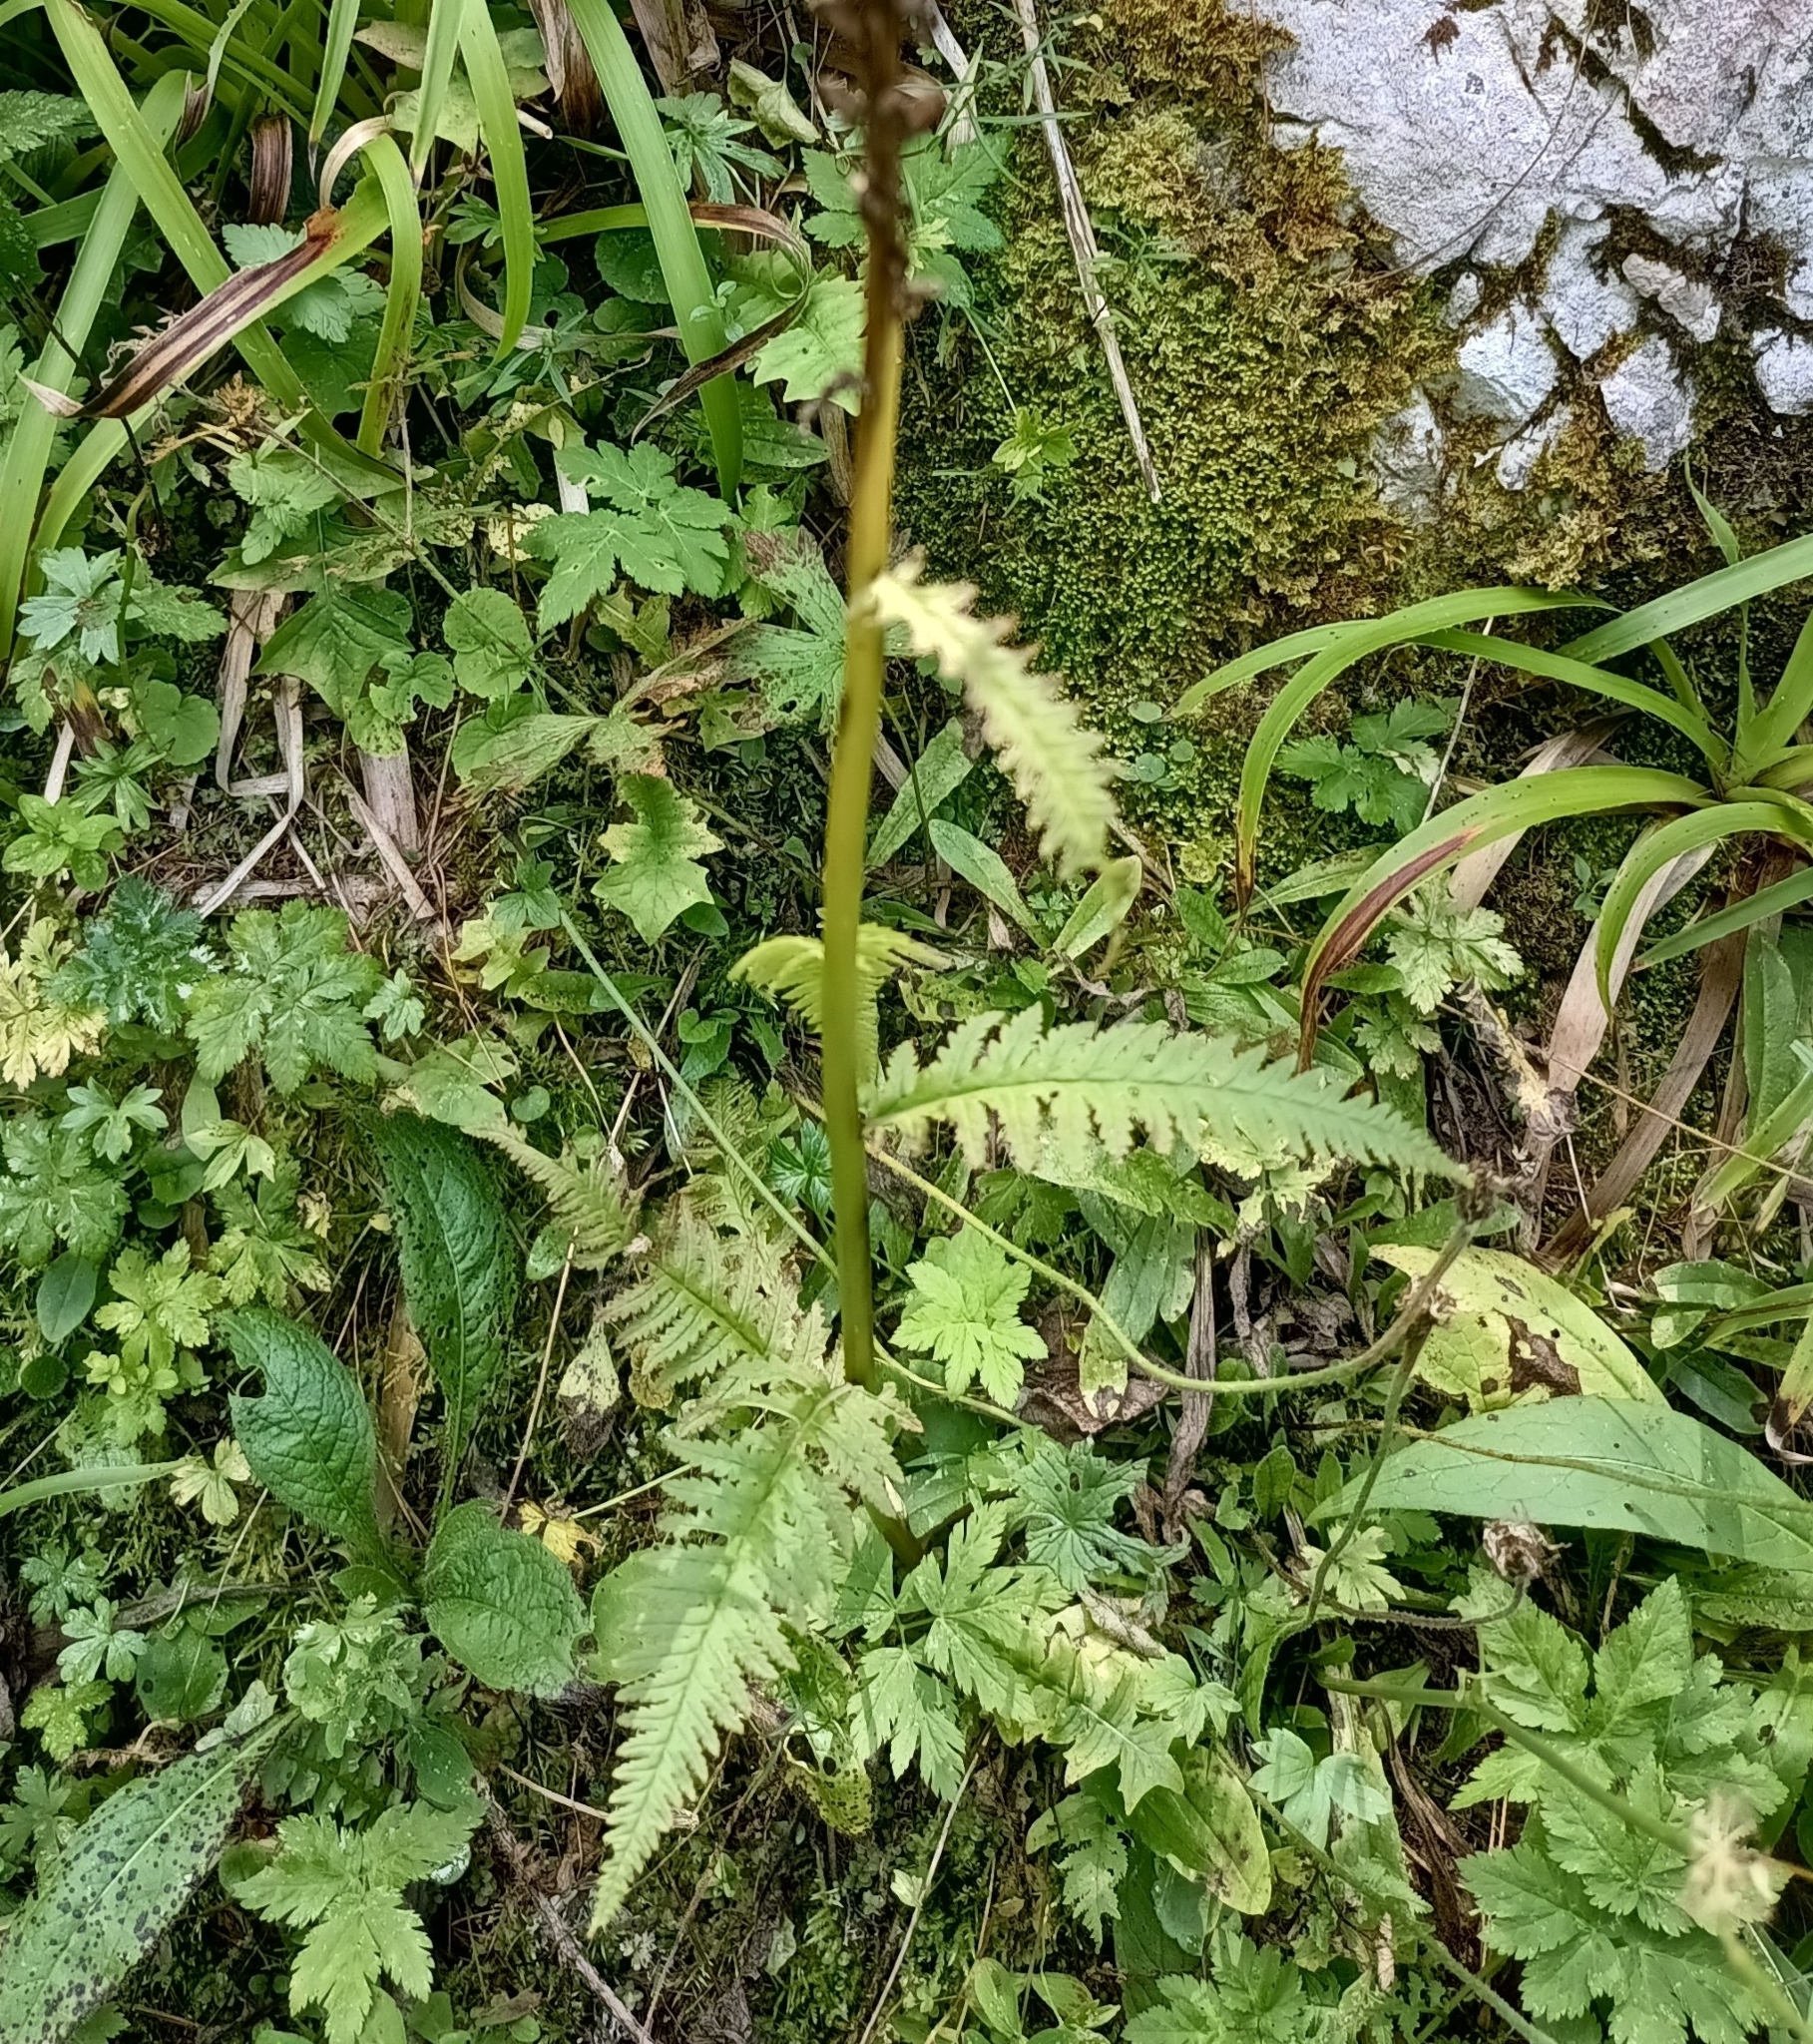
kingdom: Plantae
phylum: Tracheophyta
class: Magnoliopsida
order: Lamiales
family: Orobanchaceae
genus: Pedicularis
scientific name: Pedicularis recutita
